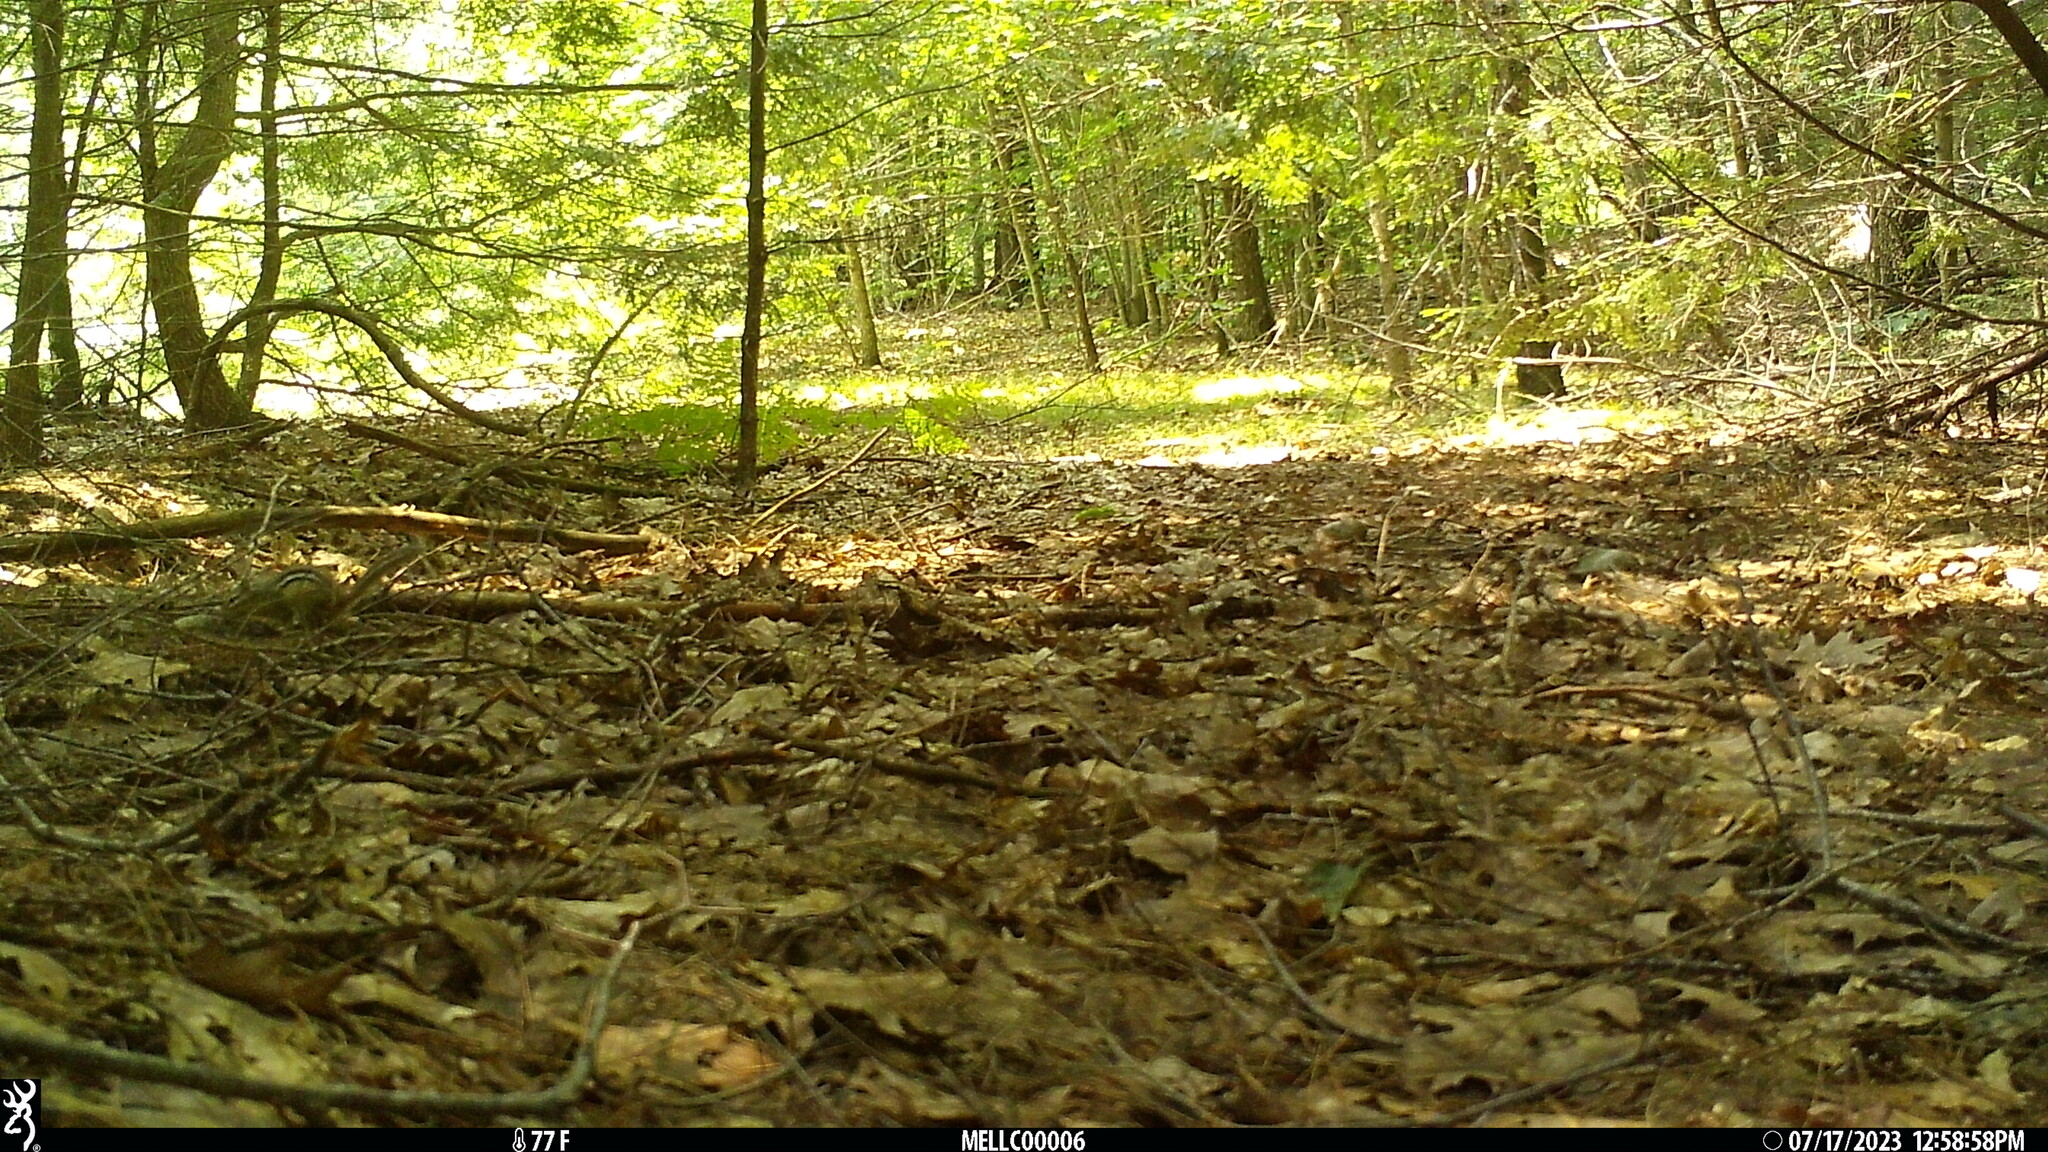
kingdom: Animalia
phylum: Chordata
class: Mammalia
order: Rodentia
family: Sciuridae
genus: Tamias
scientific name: Tamias striatus
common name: Eastern chipmunk
